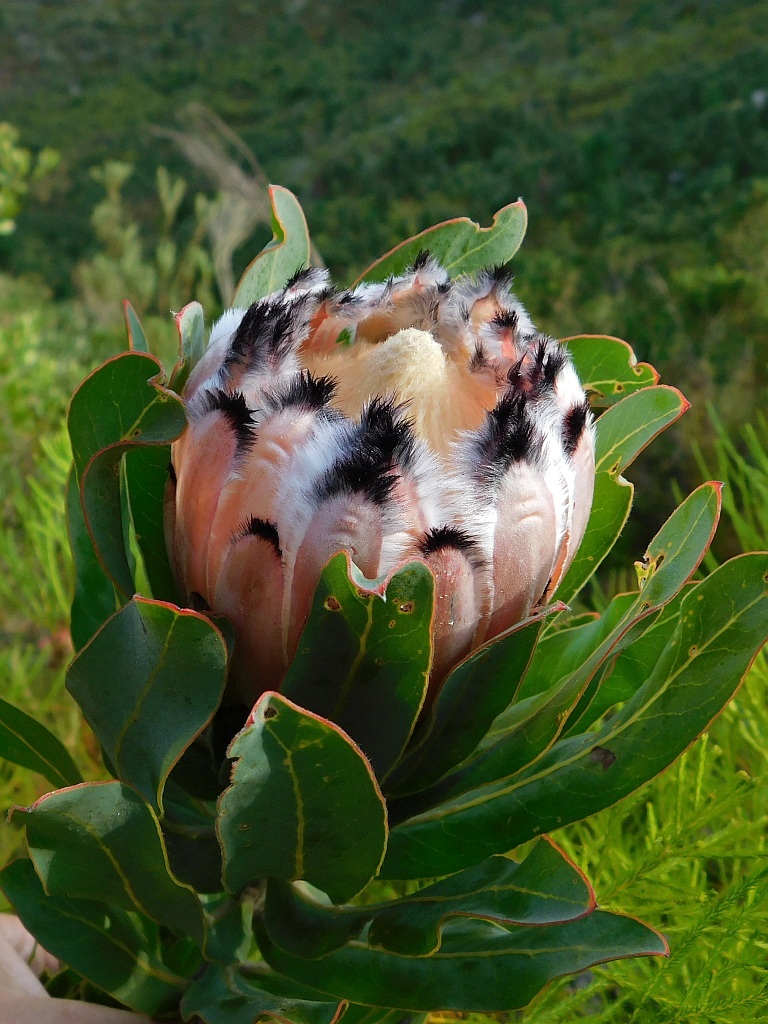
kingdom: Plantae
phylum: Tracheophyta
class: Magnoliopsida
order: Proteales
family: Proteaceae
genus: Protea
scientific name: Protea
